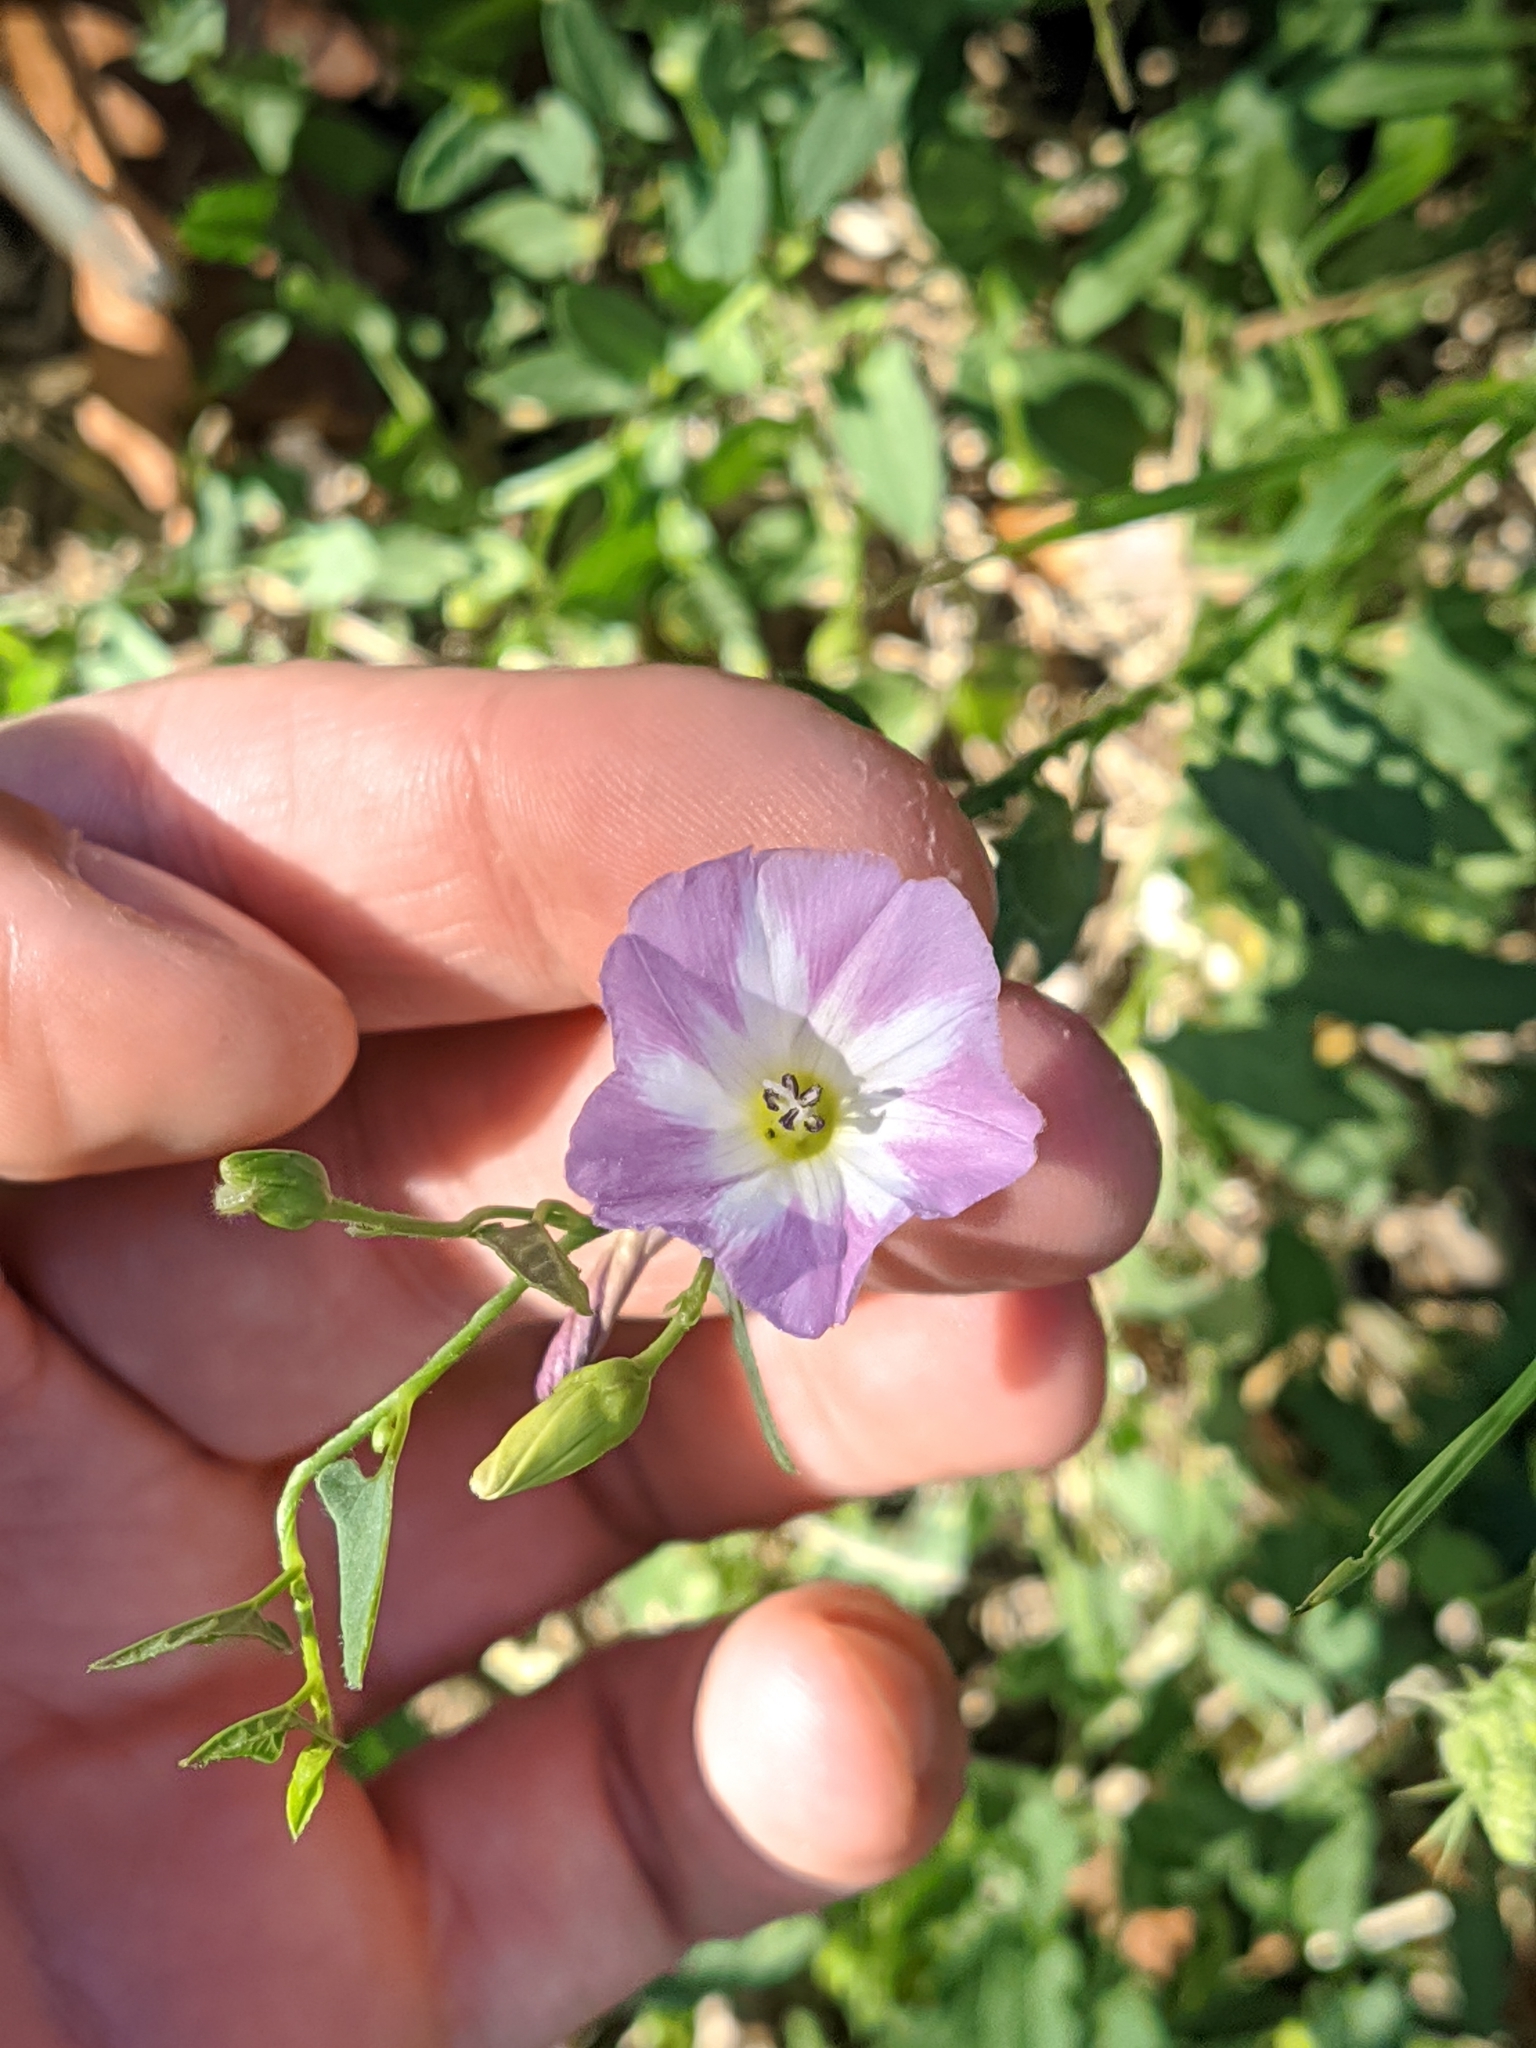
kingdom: Plantae
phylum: Tracheophyta
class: Magnoliopsida
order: Solanales
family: Convolvulaceae
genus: Convolvulus
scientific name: Convolvulus arvensis
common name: Field bindweed
